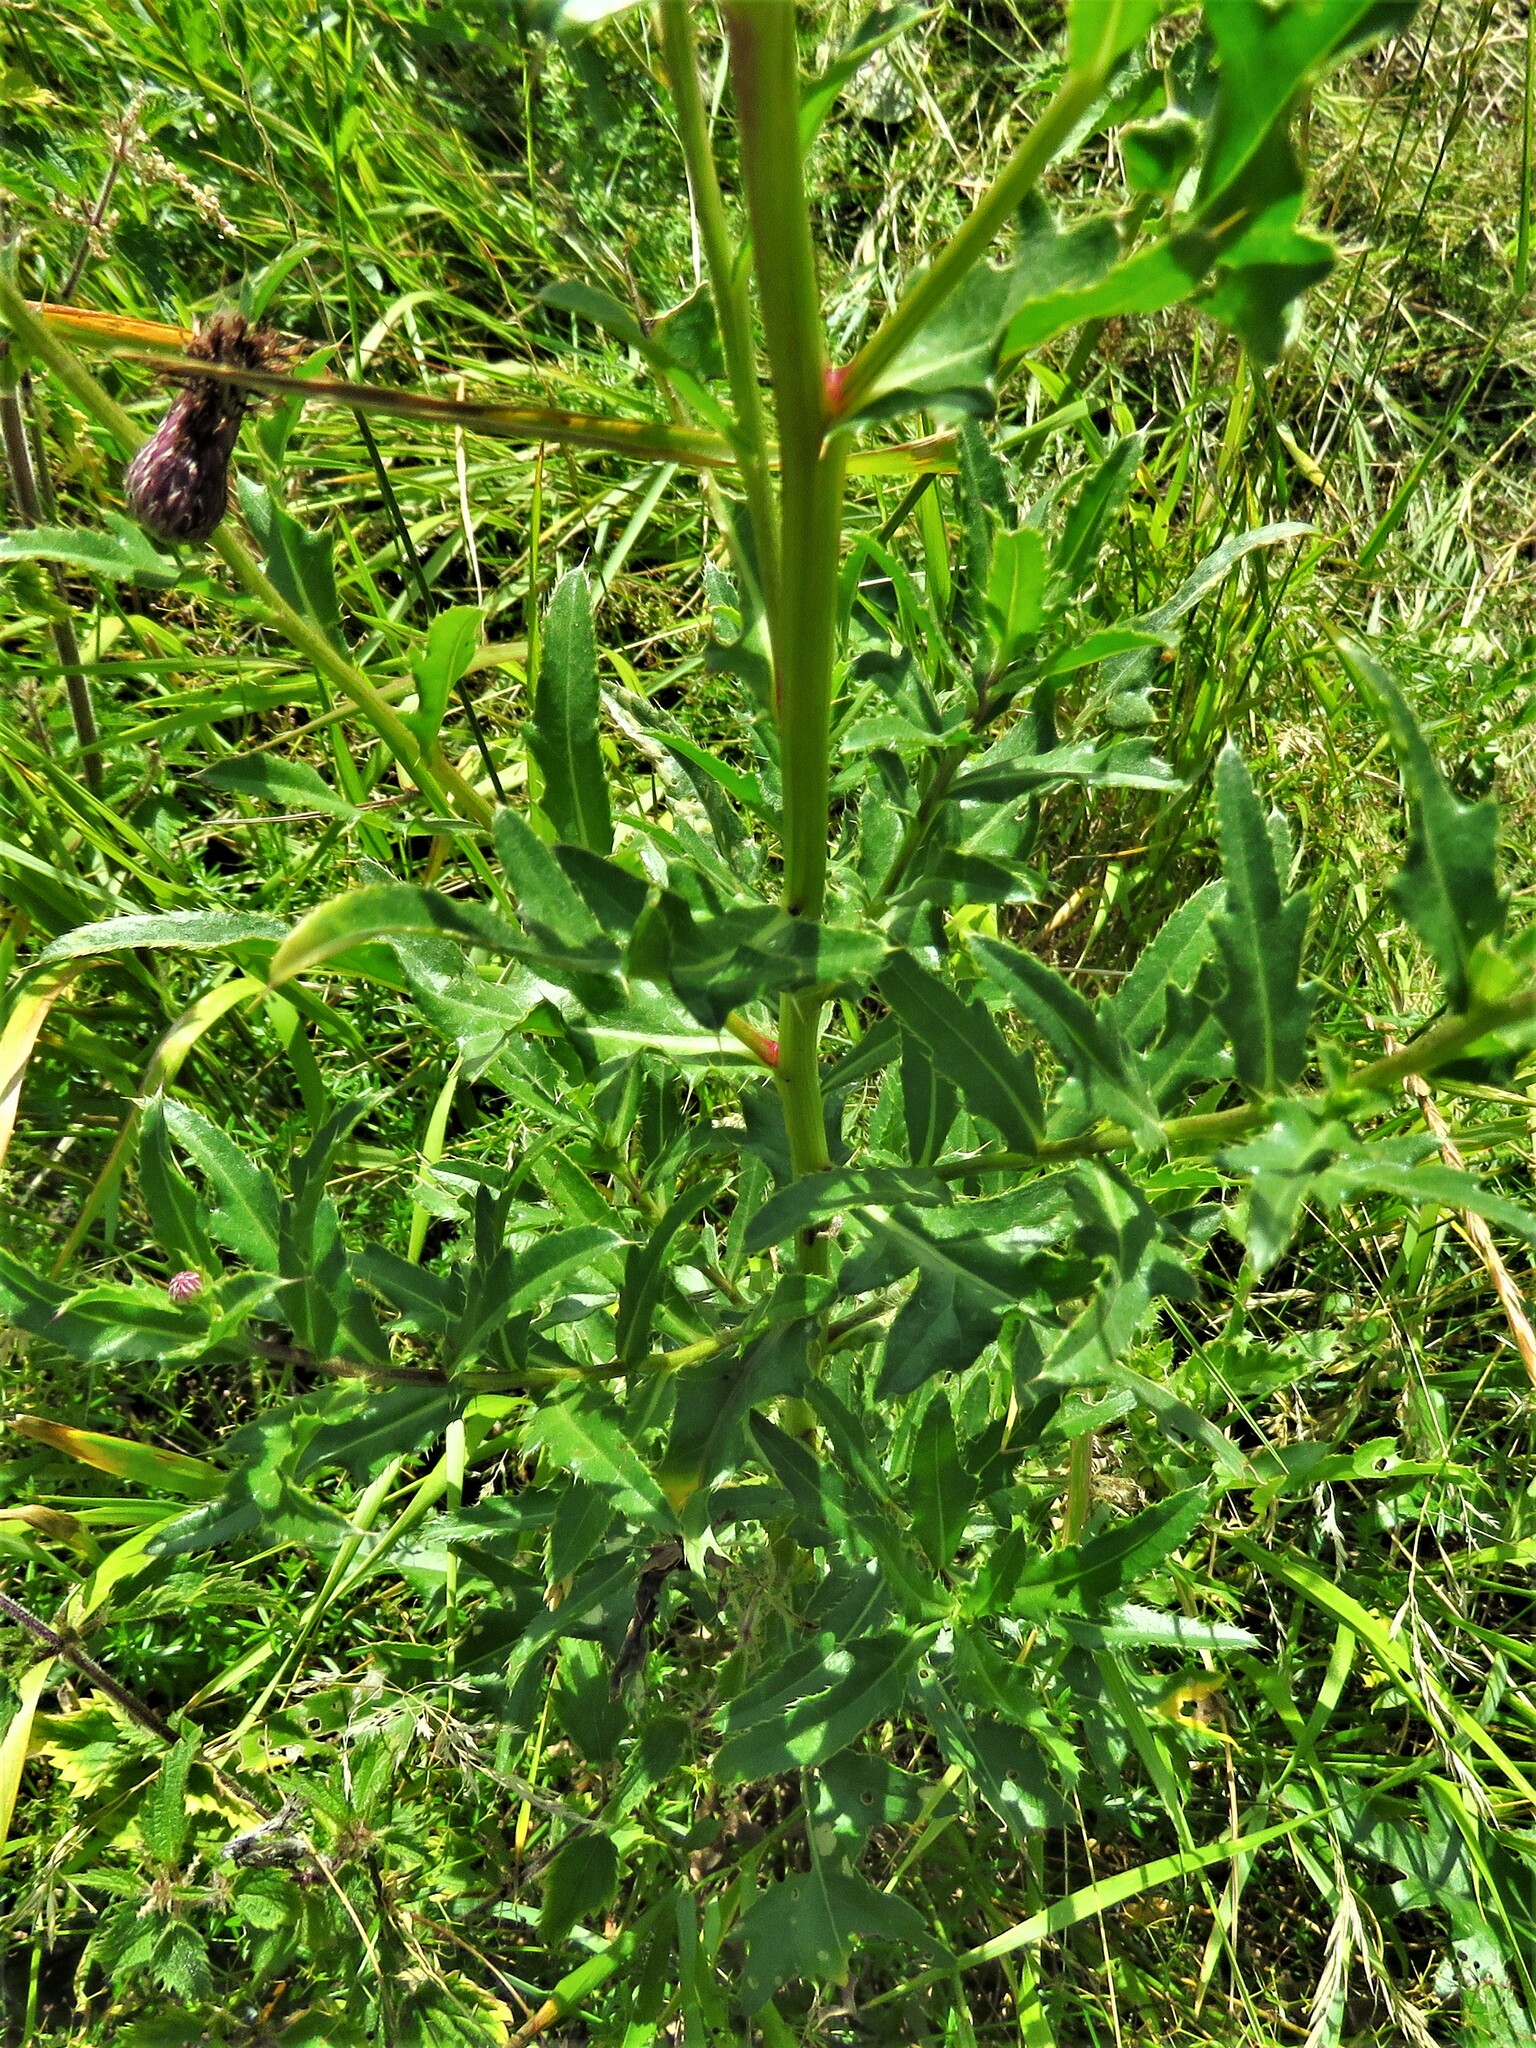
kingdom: Plantae
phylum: Tracheophyta
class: Magnoliopsida
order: Asterales
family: Asteraceae
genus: Cirsium
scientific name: Cirsium arvense
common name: Creeping thistle
